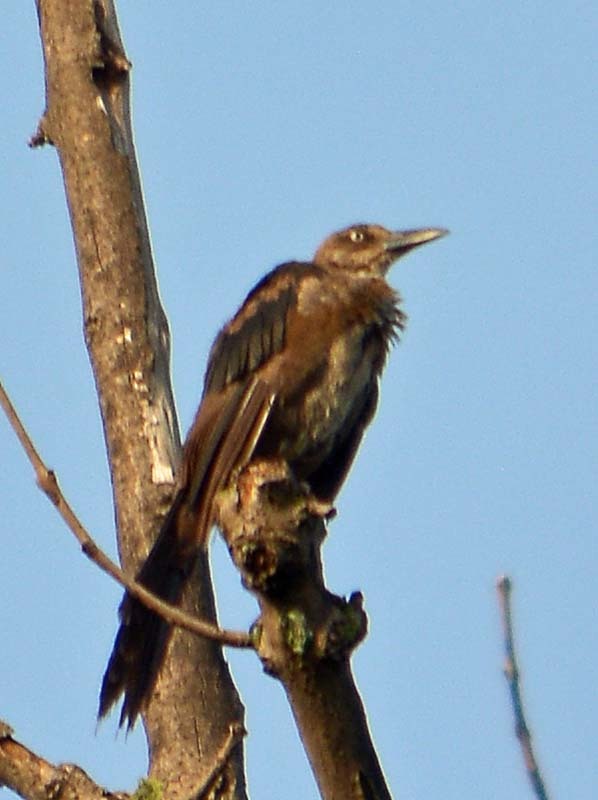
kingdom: Animalia
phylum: Chordata
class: Aves
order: Passeriformes
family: Icteridae
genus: Quiscalus
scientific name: Quiscalus mexicanus
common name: Great-tailed grackle
